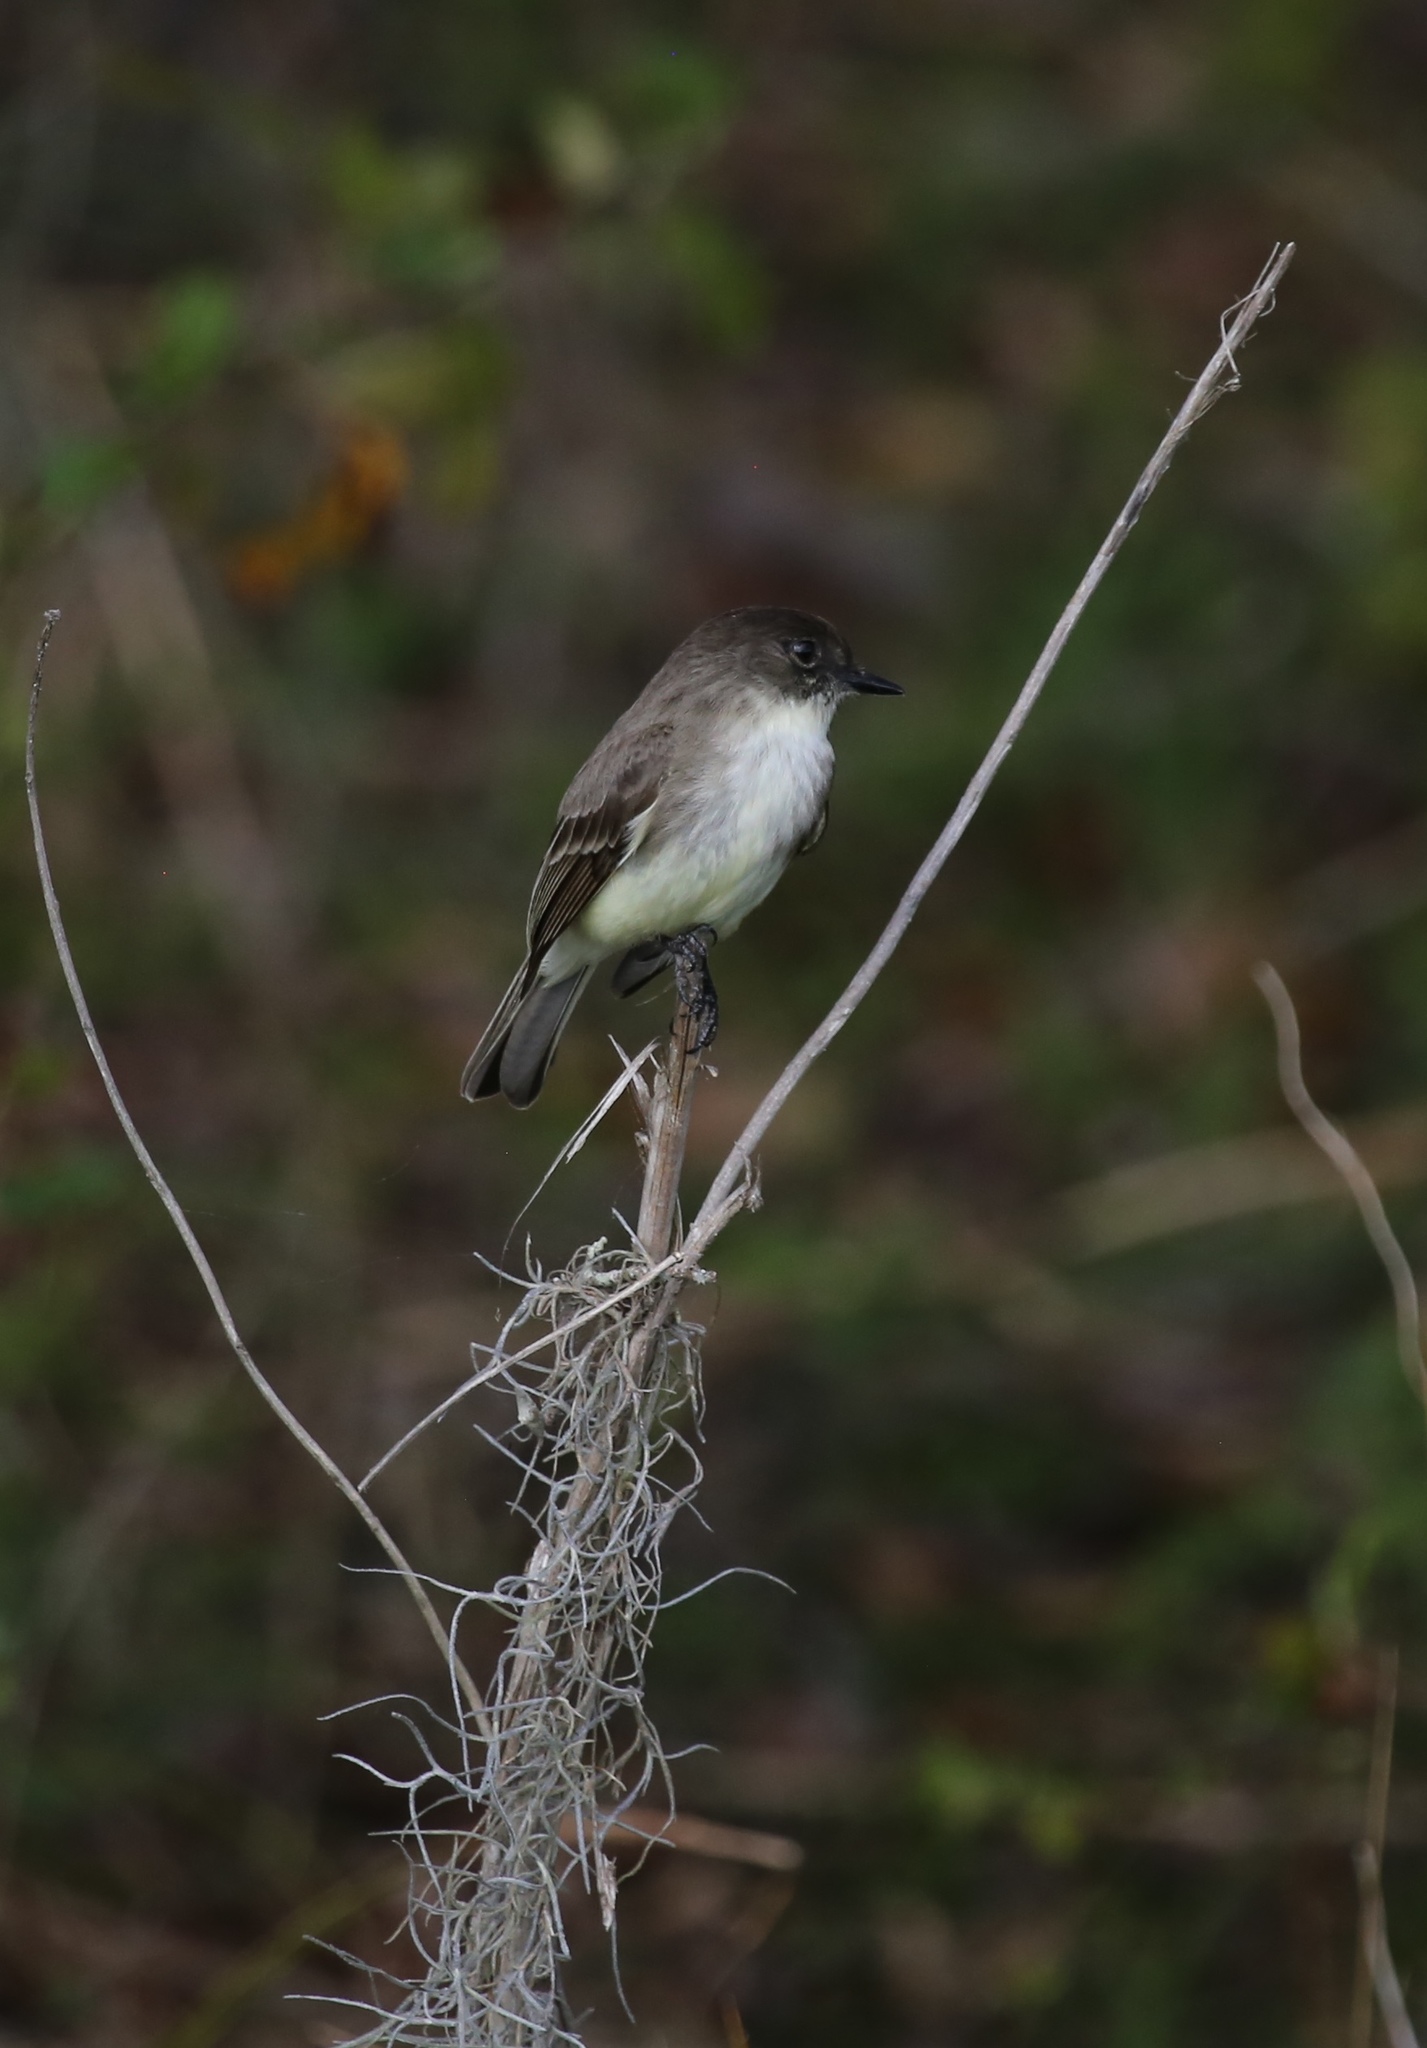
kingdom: Animalia
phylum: Chordata
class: Aves
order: Passeriformes
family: Tyrannidae
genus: Sayornis
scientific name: Sayornis phoebe
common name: Eastern phoebe
